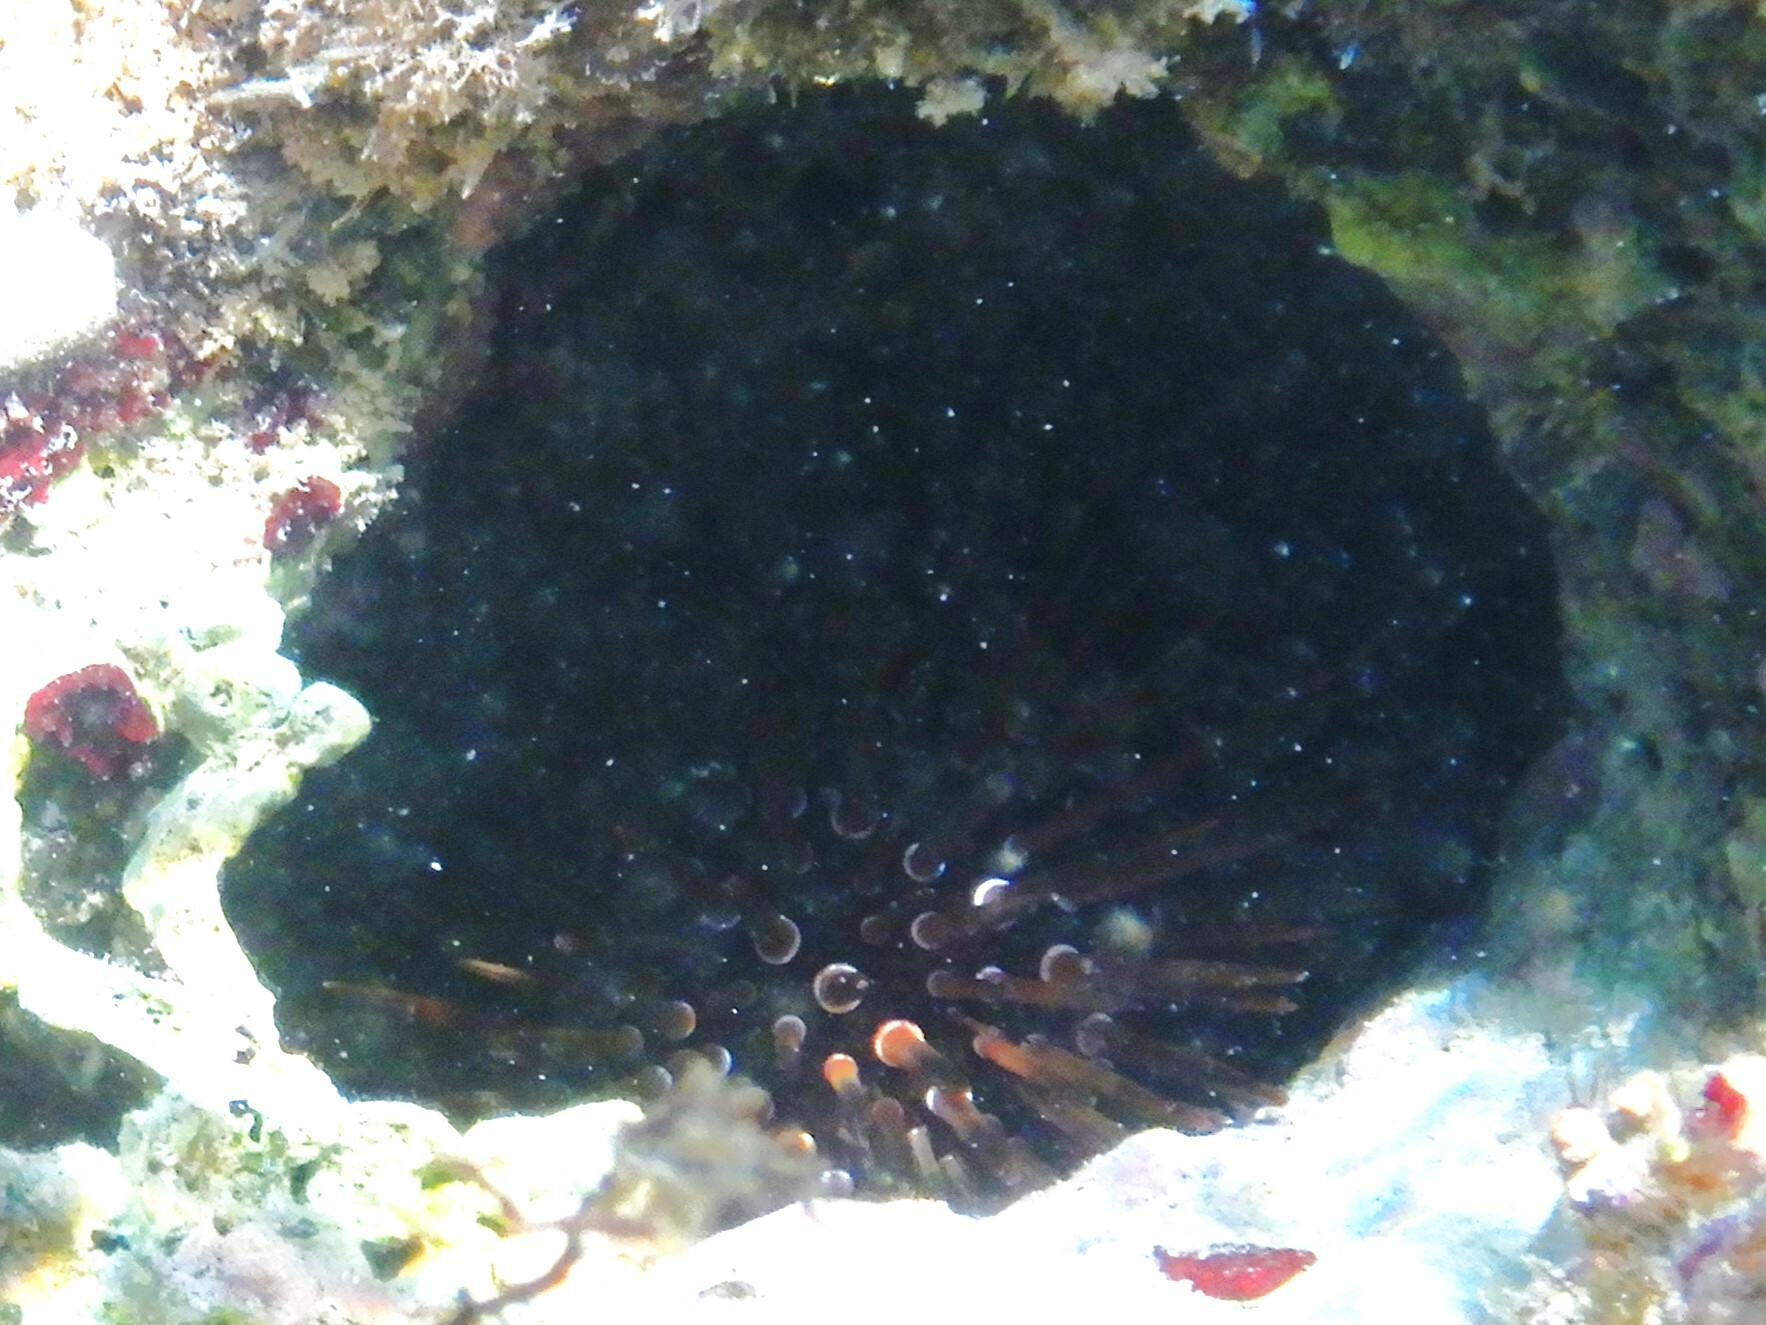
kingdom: Animalia
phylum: Echinodermata
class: Echinoidea
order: Camarodonta
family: Echinometridae
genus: Echinometra
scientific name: Echinometra mathaei
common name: Rock-boring urchin
